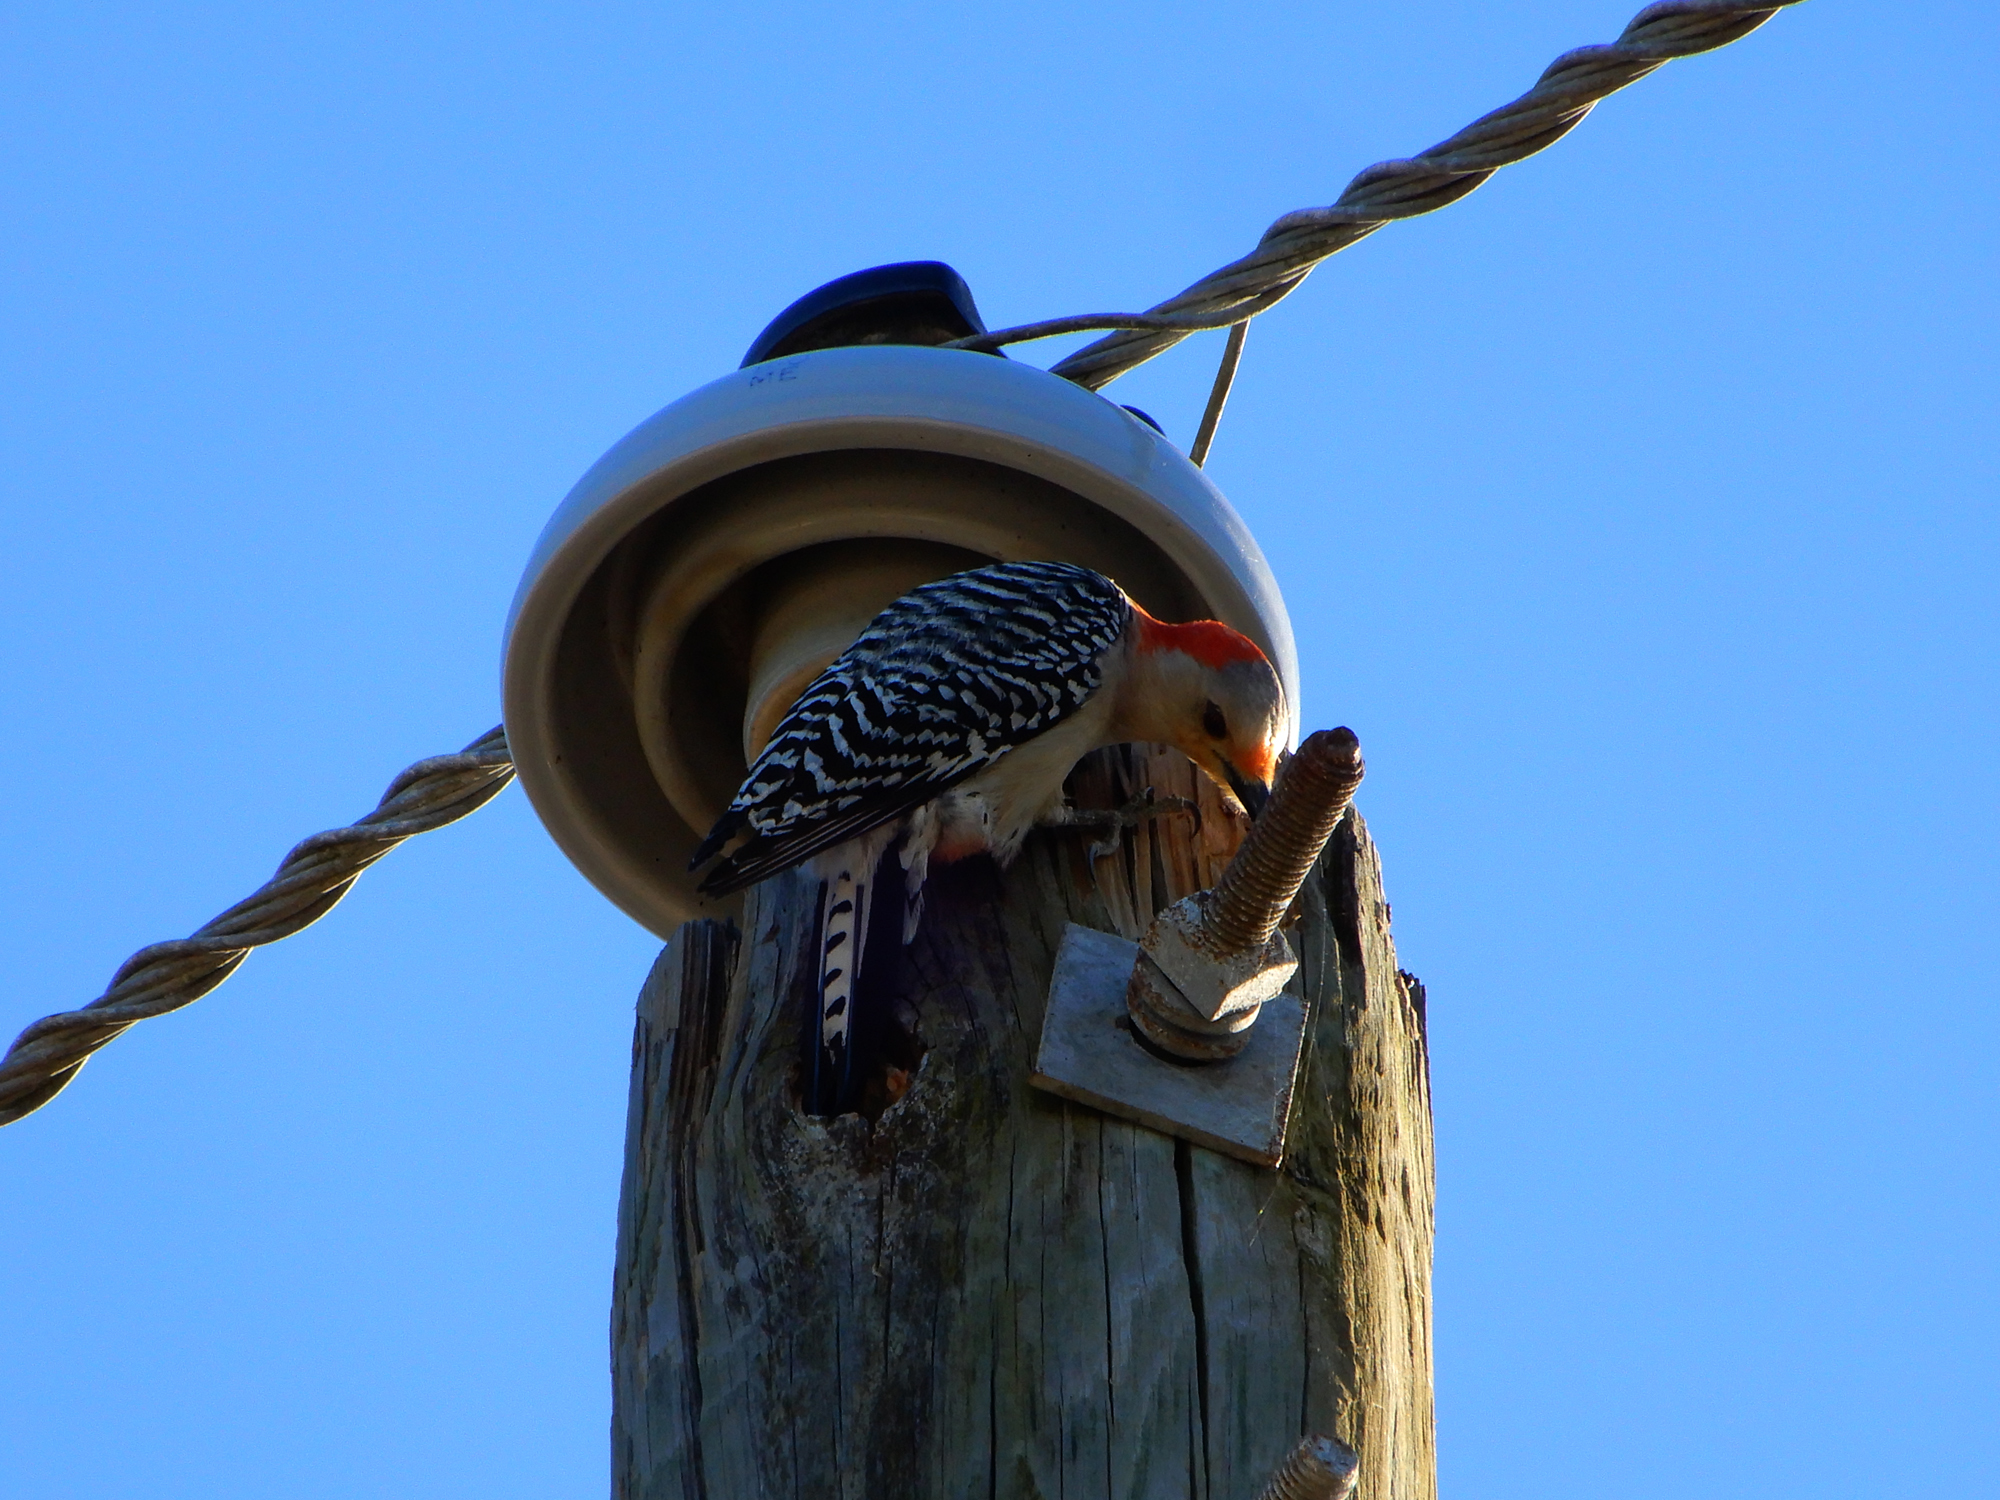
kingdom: Animalia
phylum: Chordata
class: Aves
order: Piciformes
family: Picidae
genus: Melanerpes
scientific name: Melanerpes carolinus
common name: Red-bellied woodpecker
